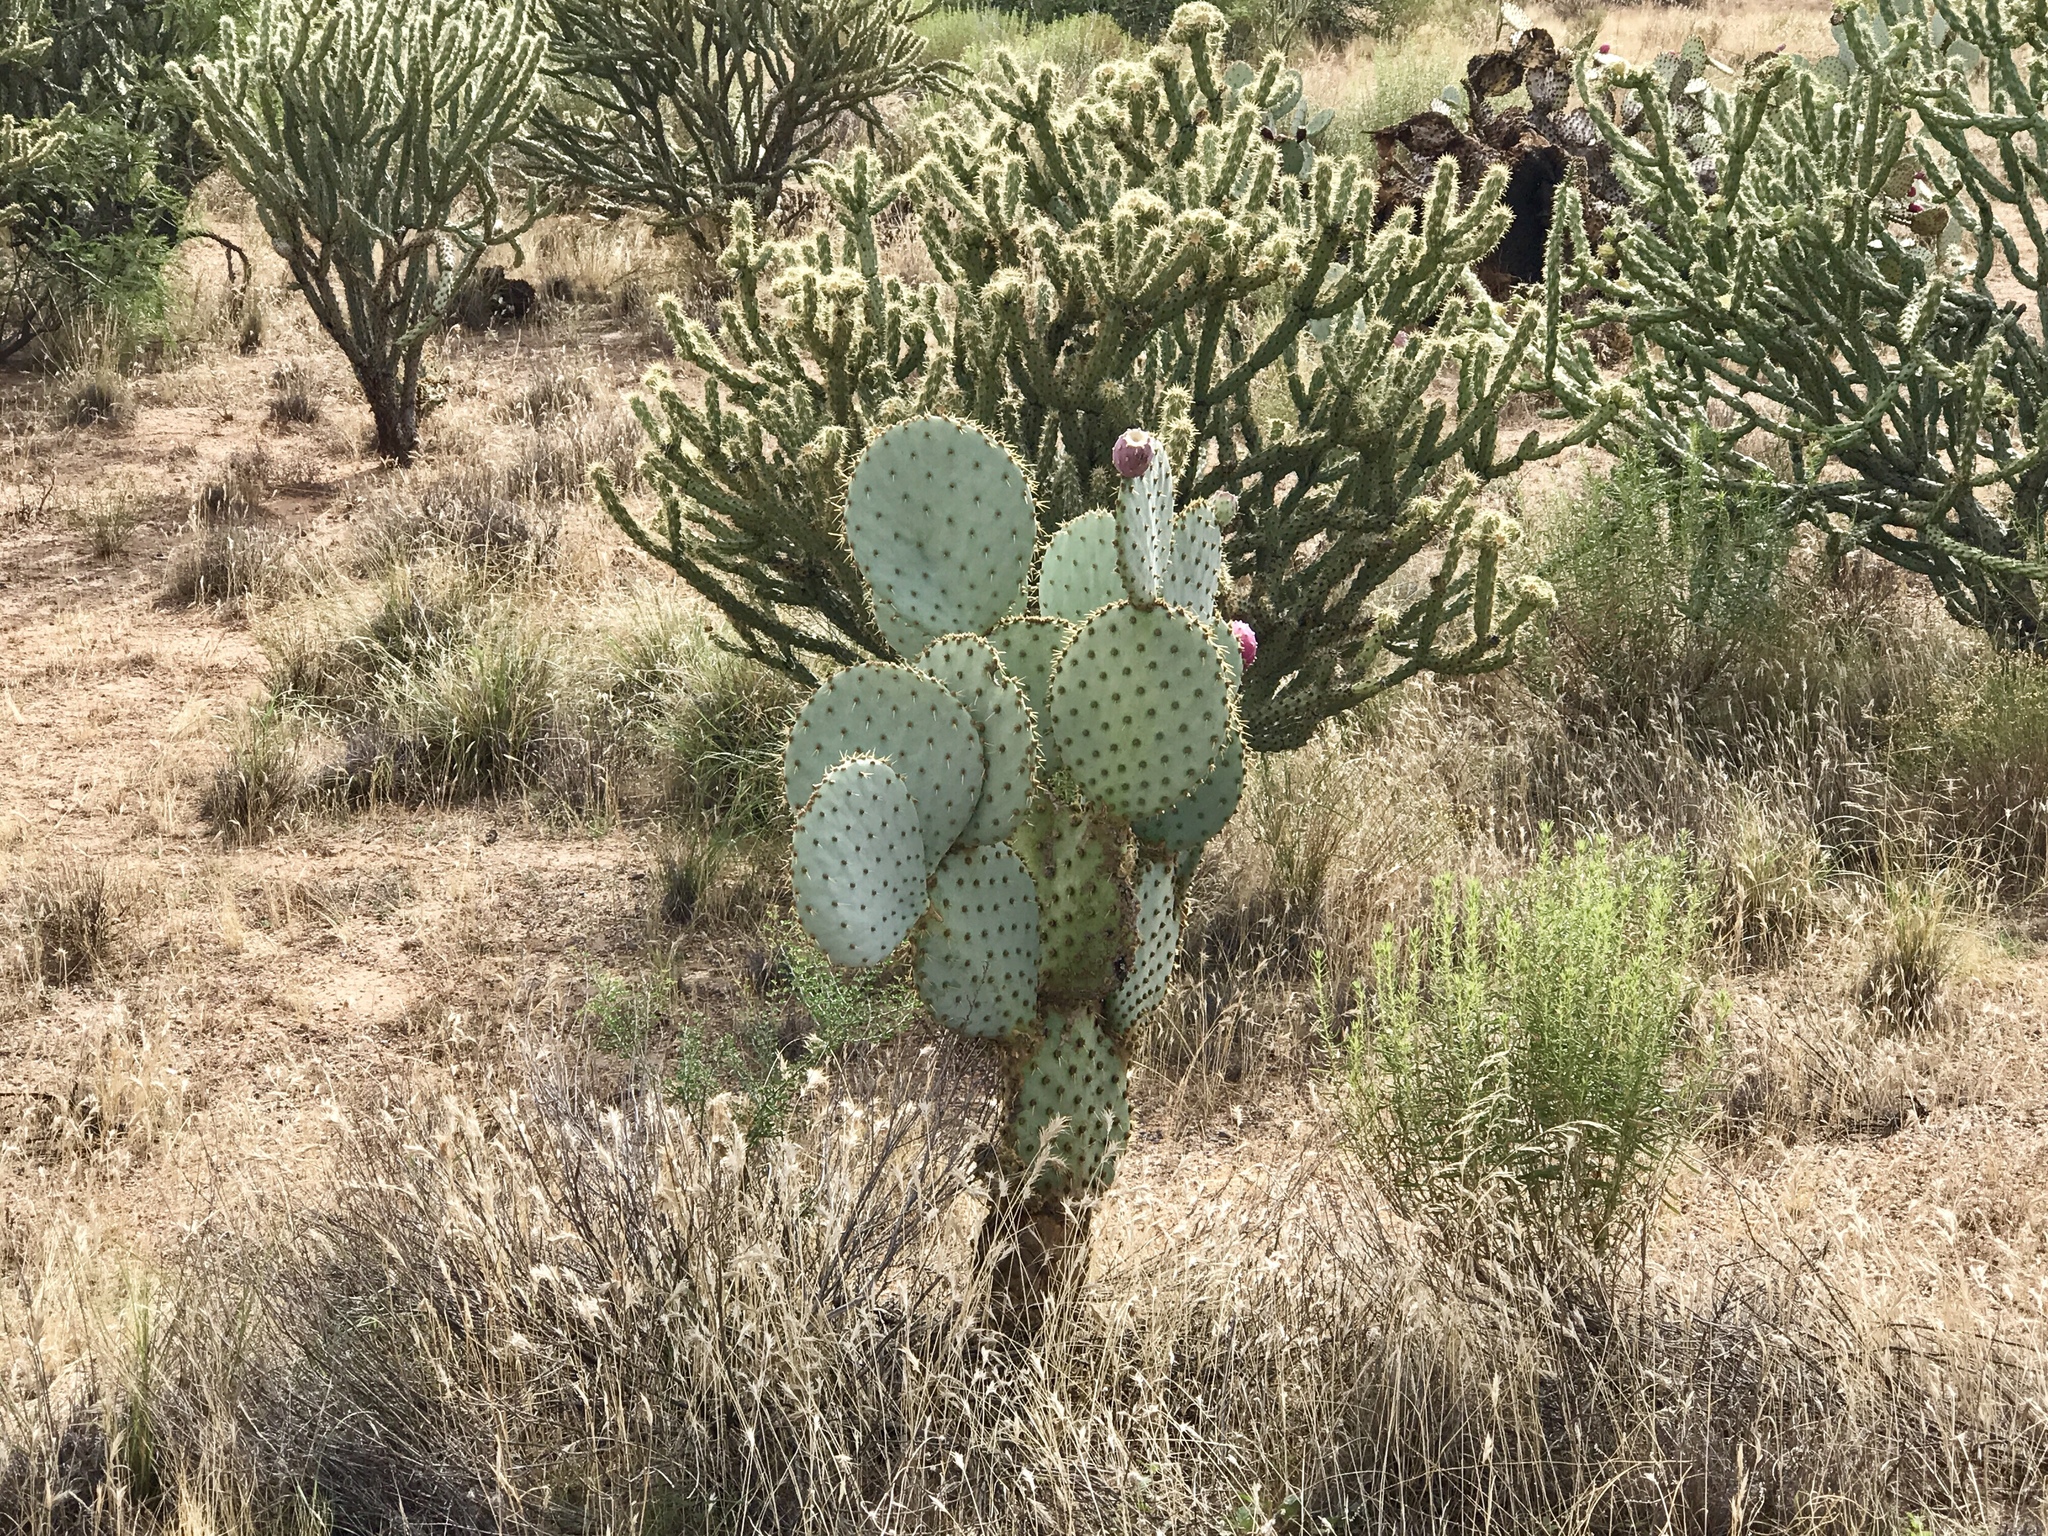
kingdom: Plantae
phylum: Tracheophyta
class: Magnoliopsida
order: Caryophyllales
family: Cactaceae
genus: Opuntia
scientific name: Opuntia chlorotica
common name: Dollar-joint prickly-pear
